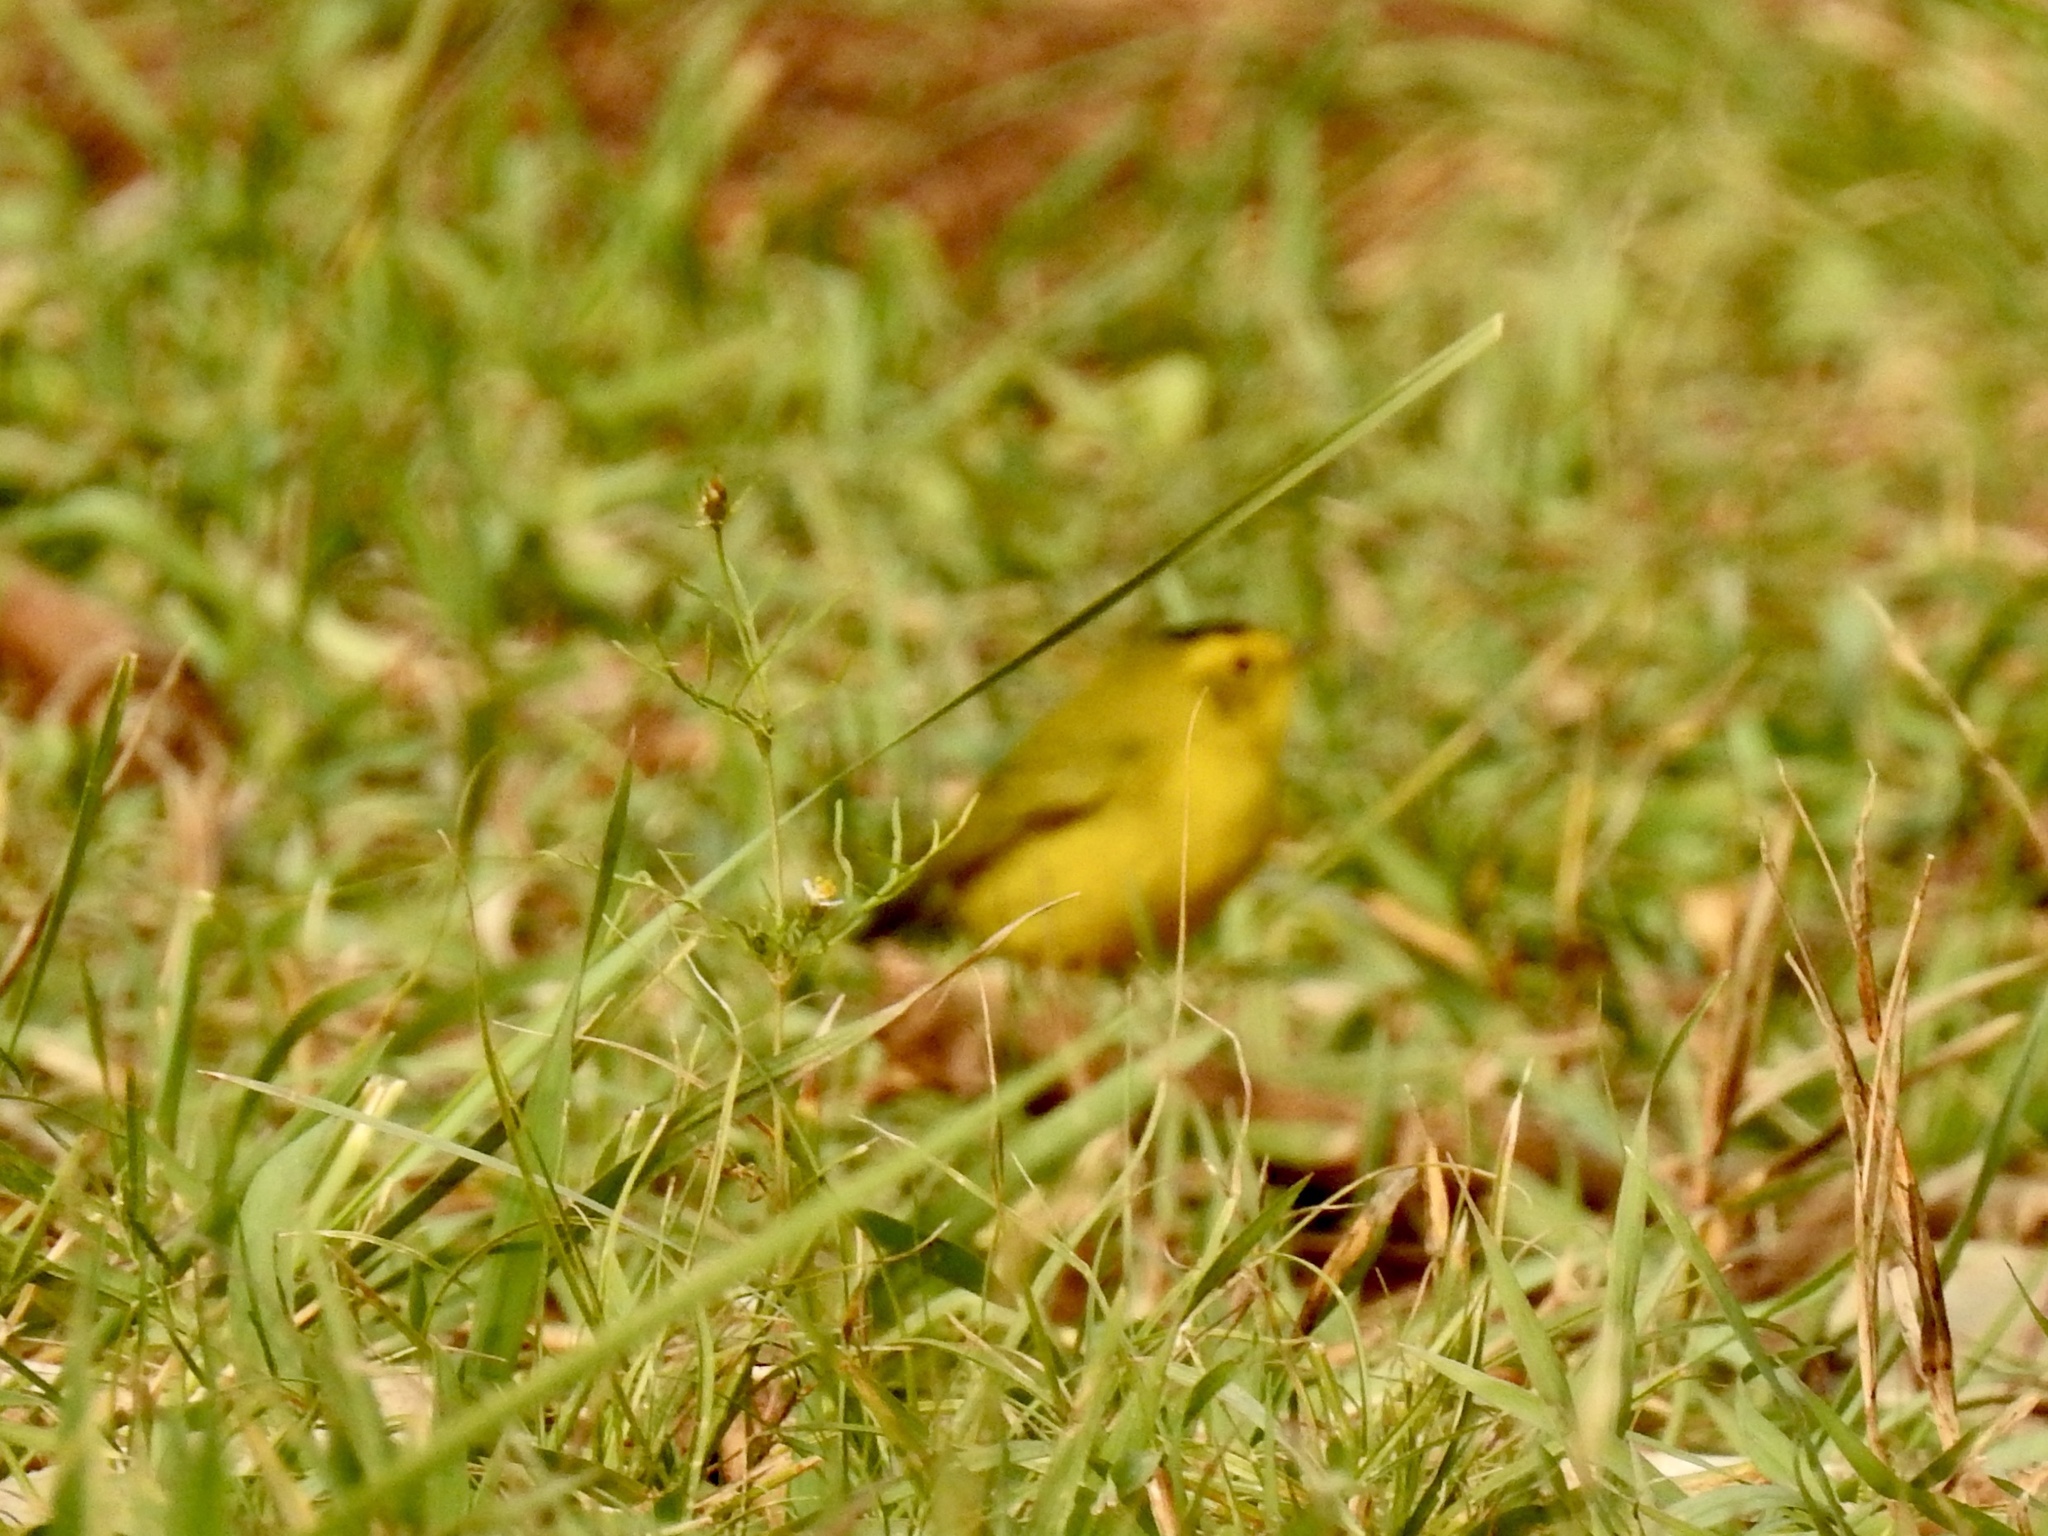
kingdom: Animalia
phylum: Chordata
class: Aves
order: Passeriformes
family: Parulidae
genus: Cardellina
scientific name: Cardellina pusilla
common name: Wilson's warbler
